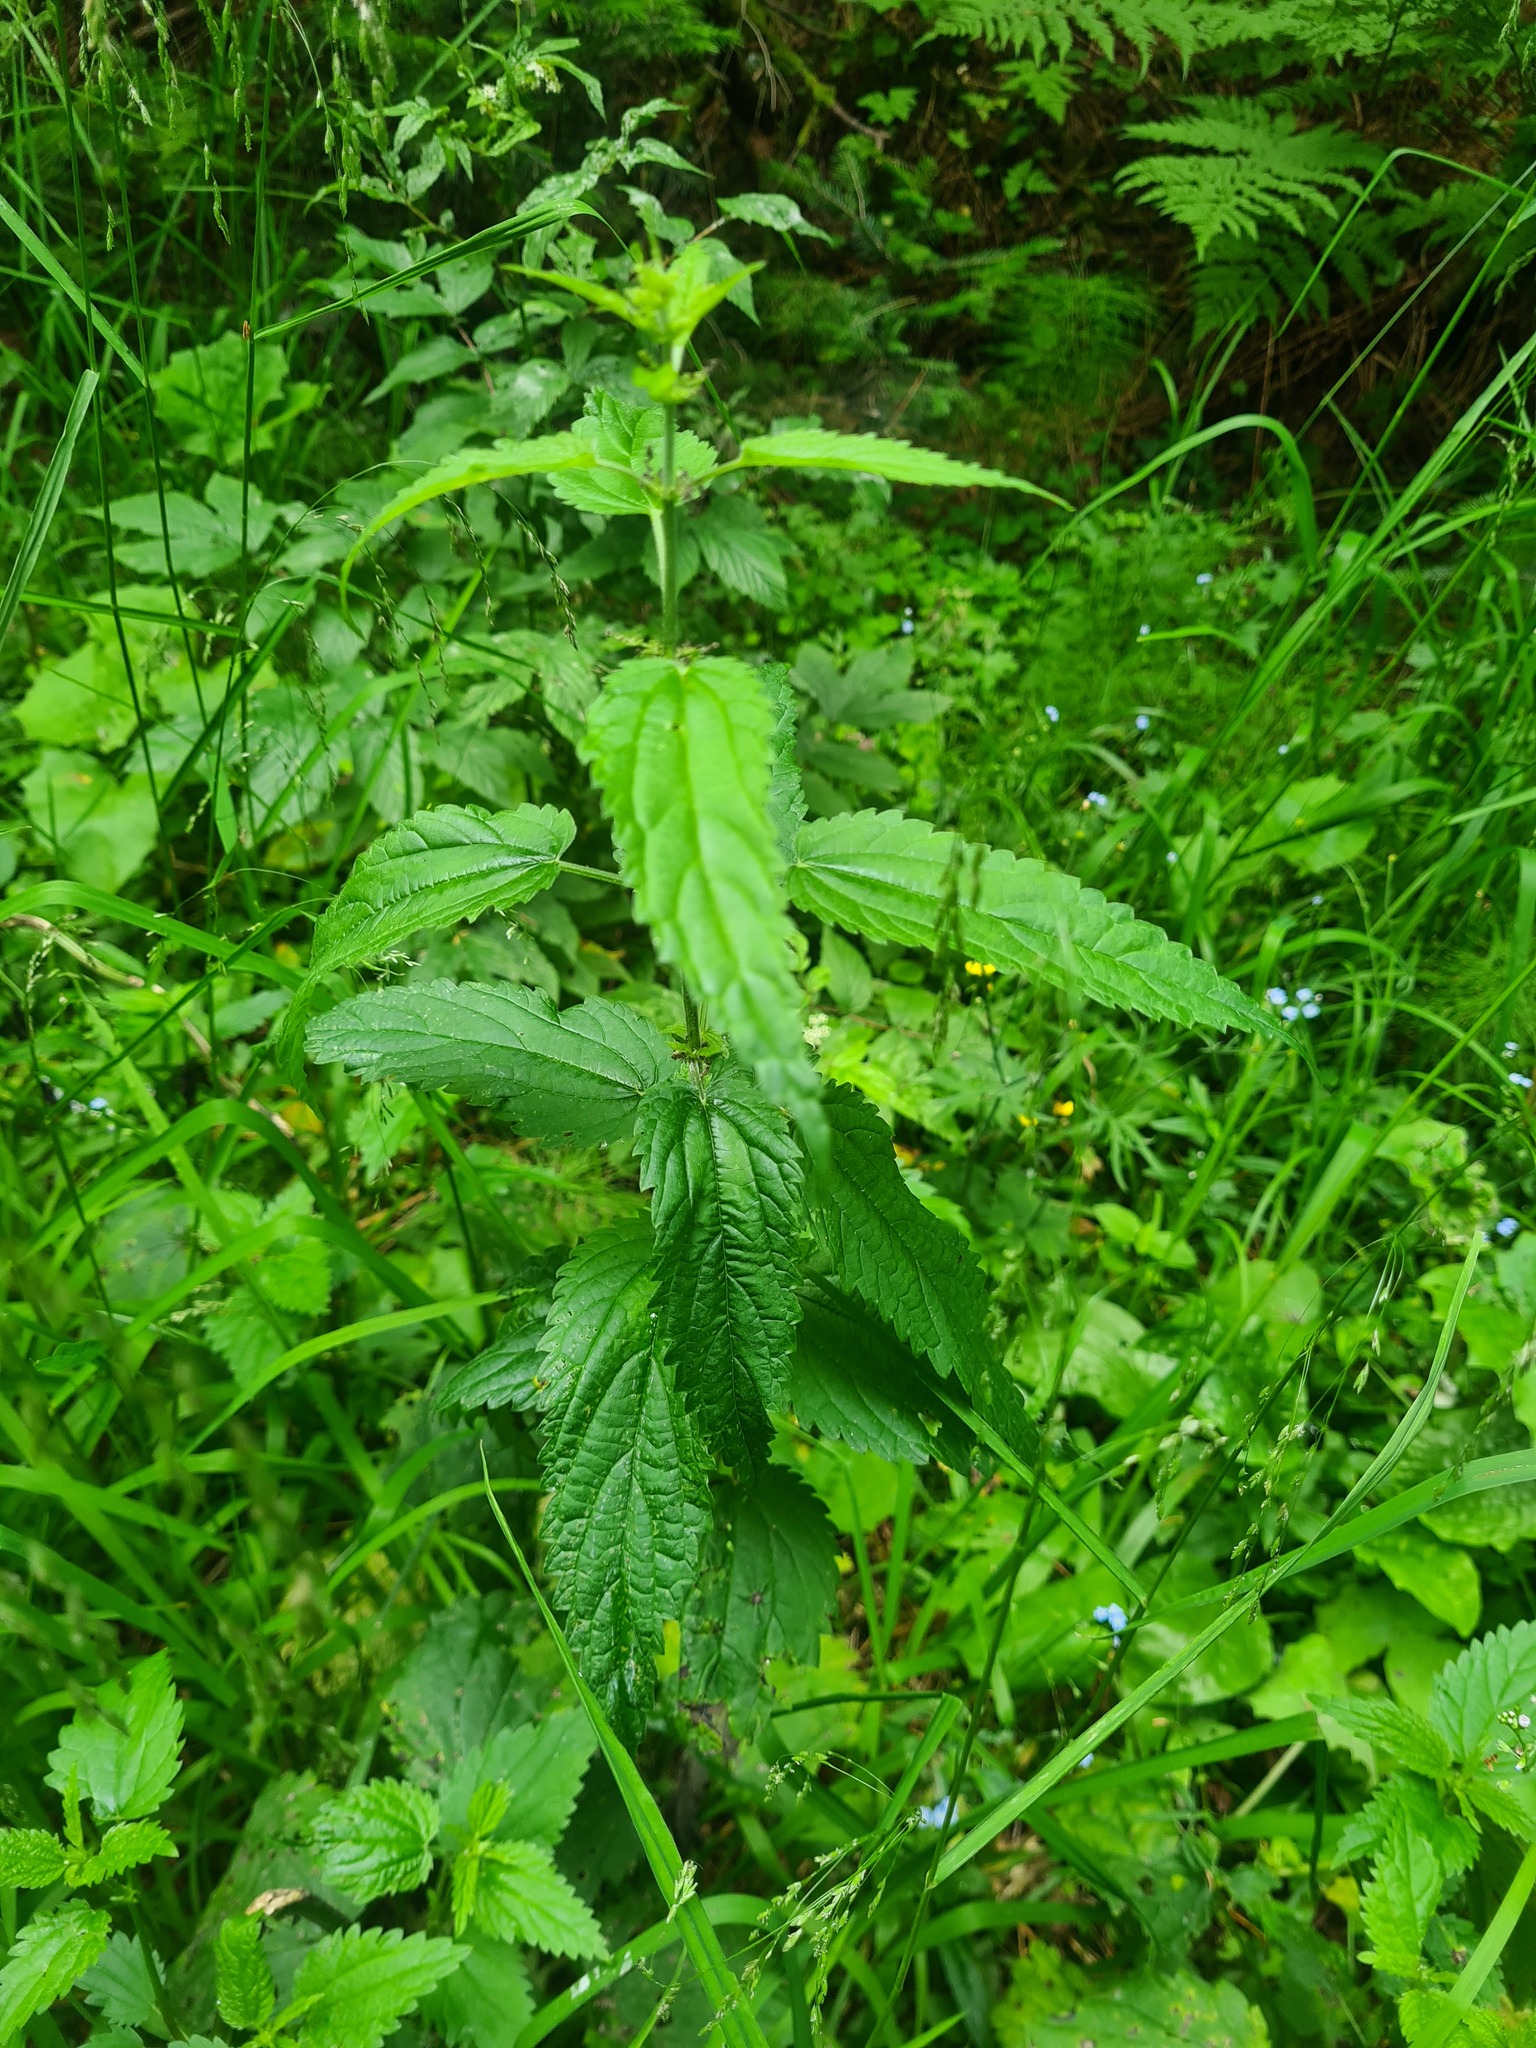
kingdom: Plantae
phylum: Tracheophyta
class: Magnoliopsida
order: Rosales
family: Urticaceae
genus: Urtica
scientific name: Urtica galeopsifolia
